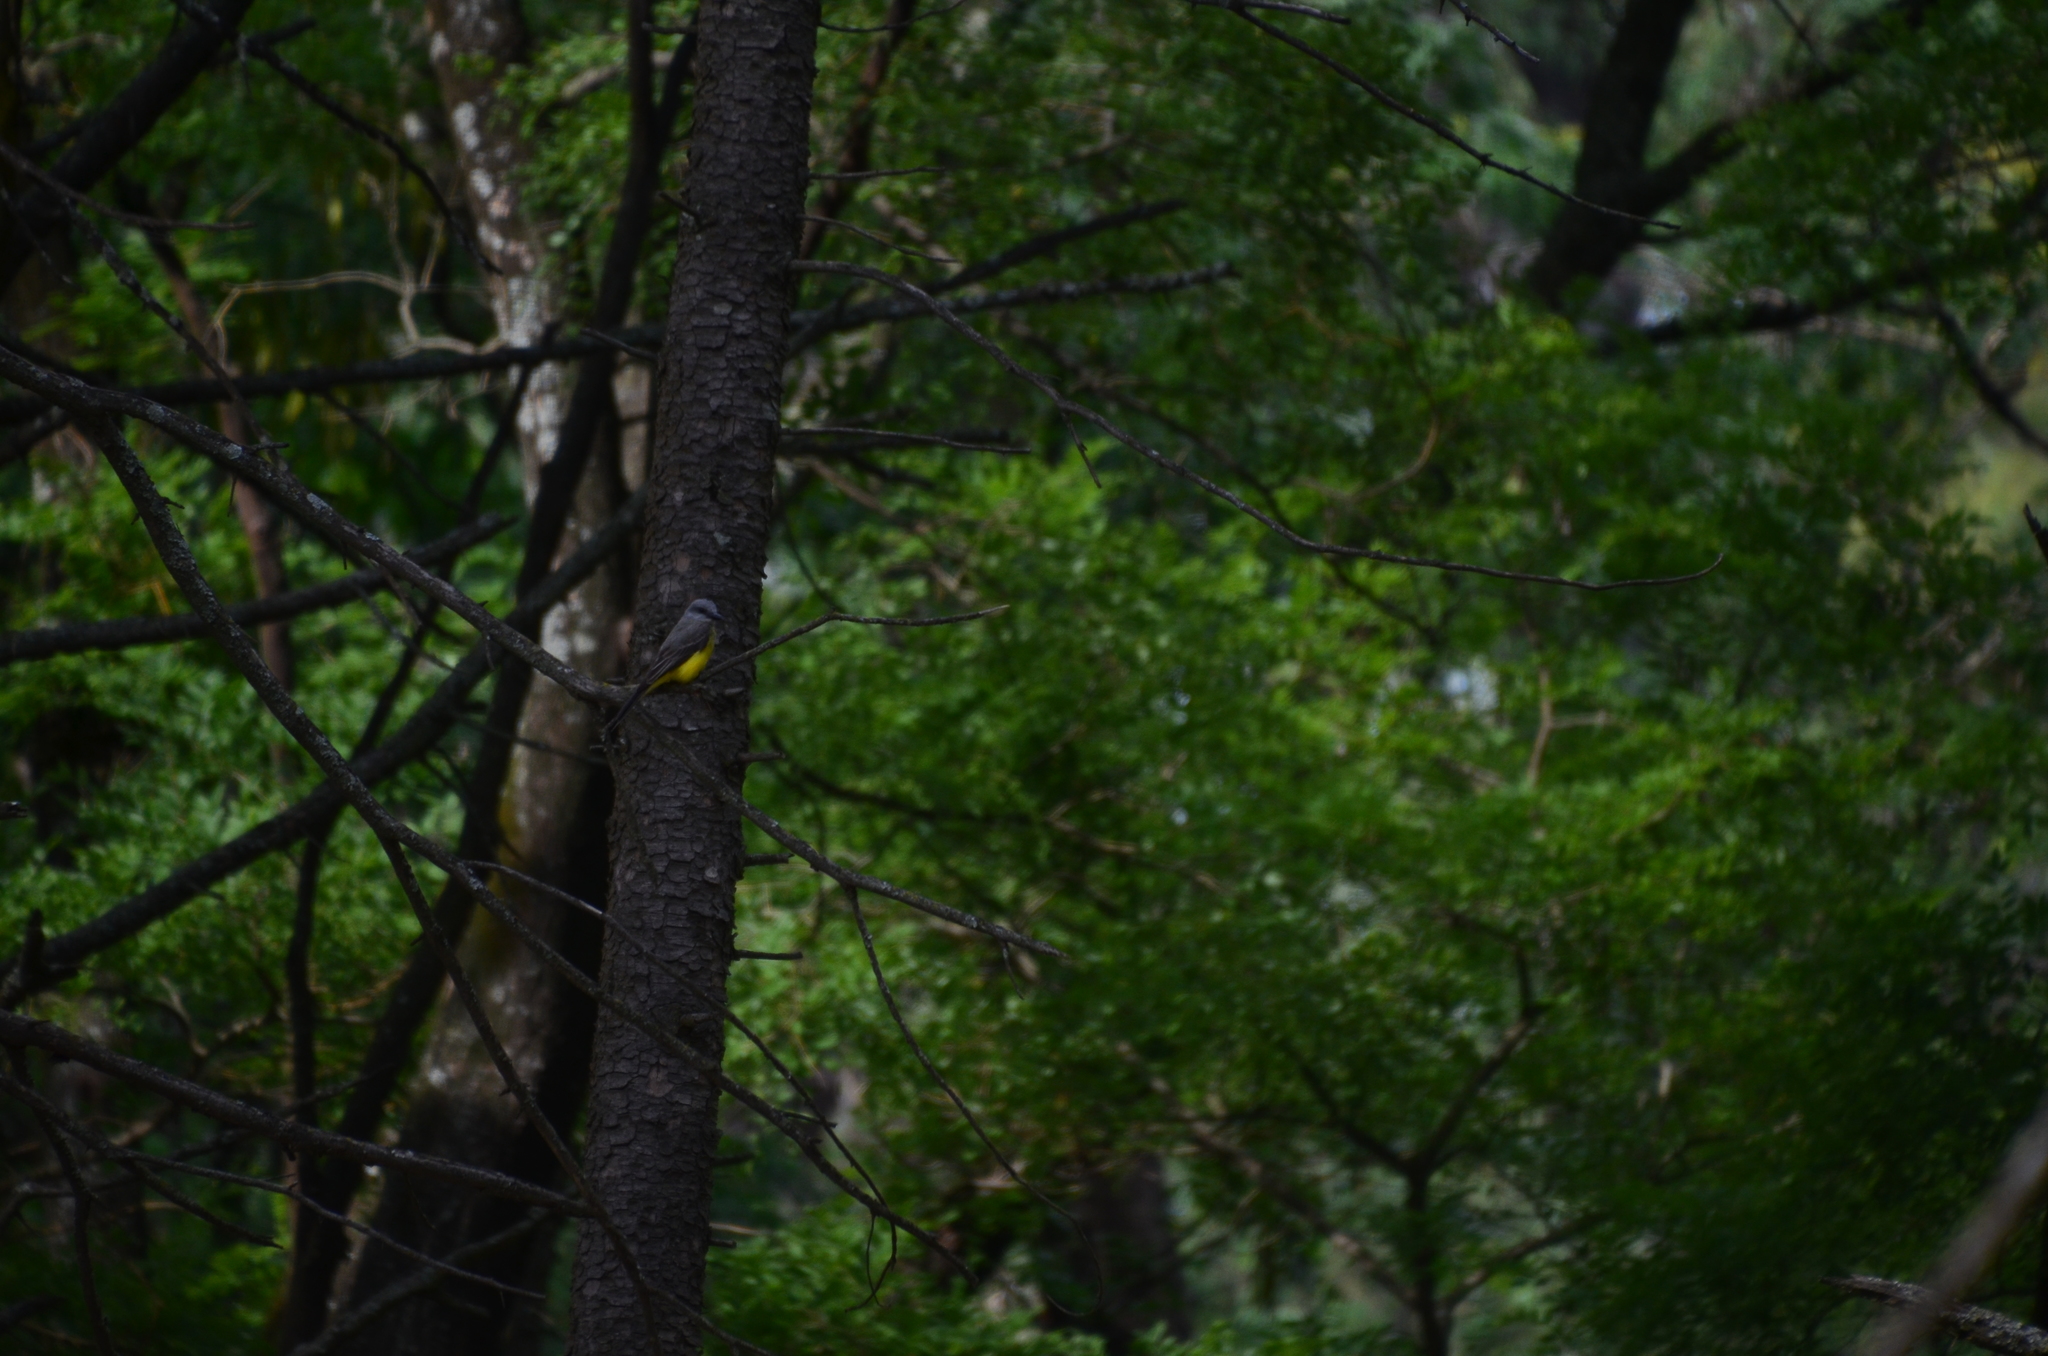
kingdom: Animalia
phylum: Chordata
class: Aves
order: Passeriformes
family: Tyrannidae
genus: Tyrannus
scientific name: Tyrannus melancholicus
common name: Tropical kingbird
